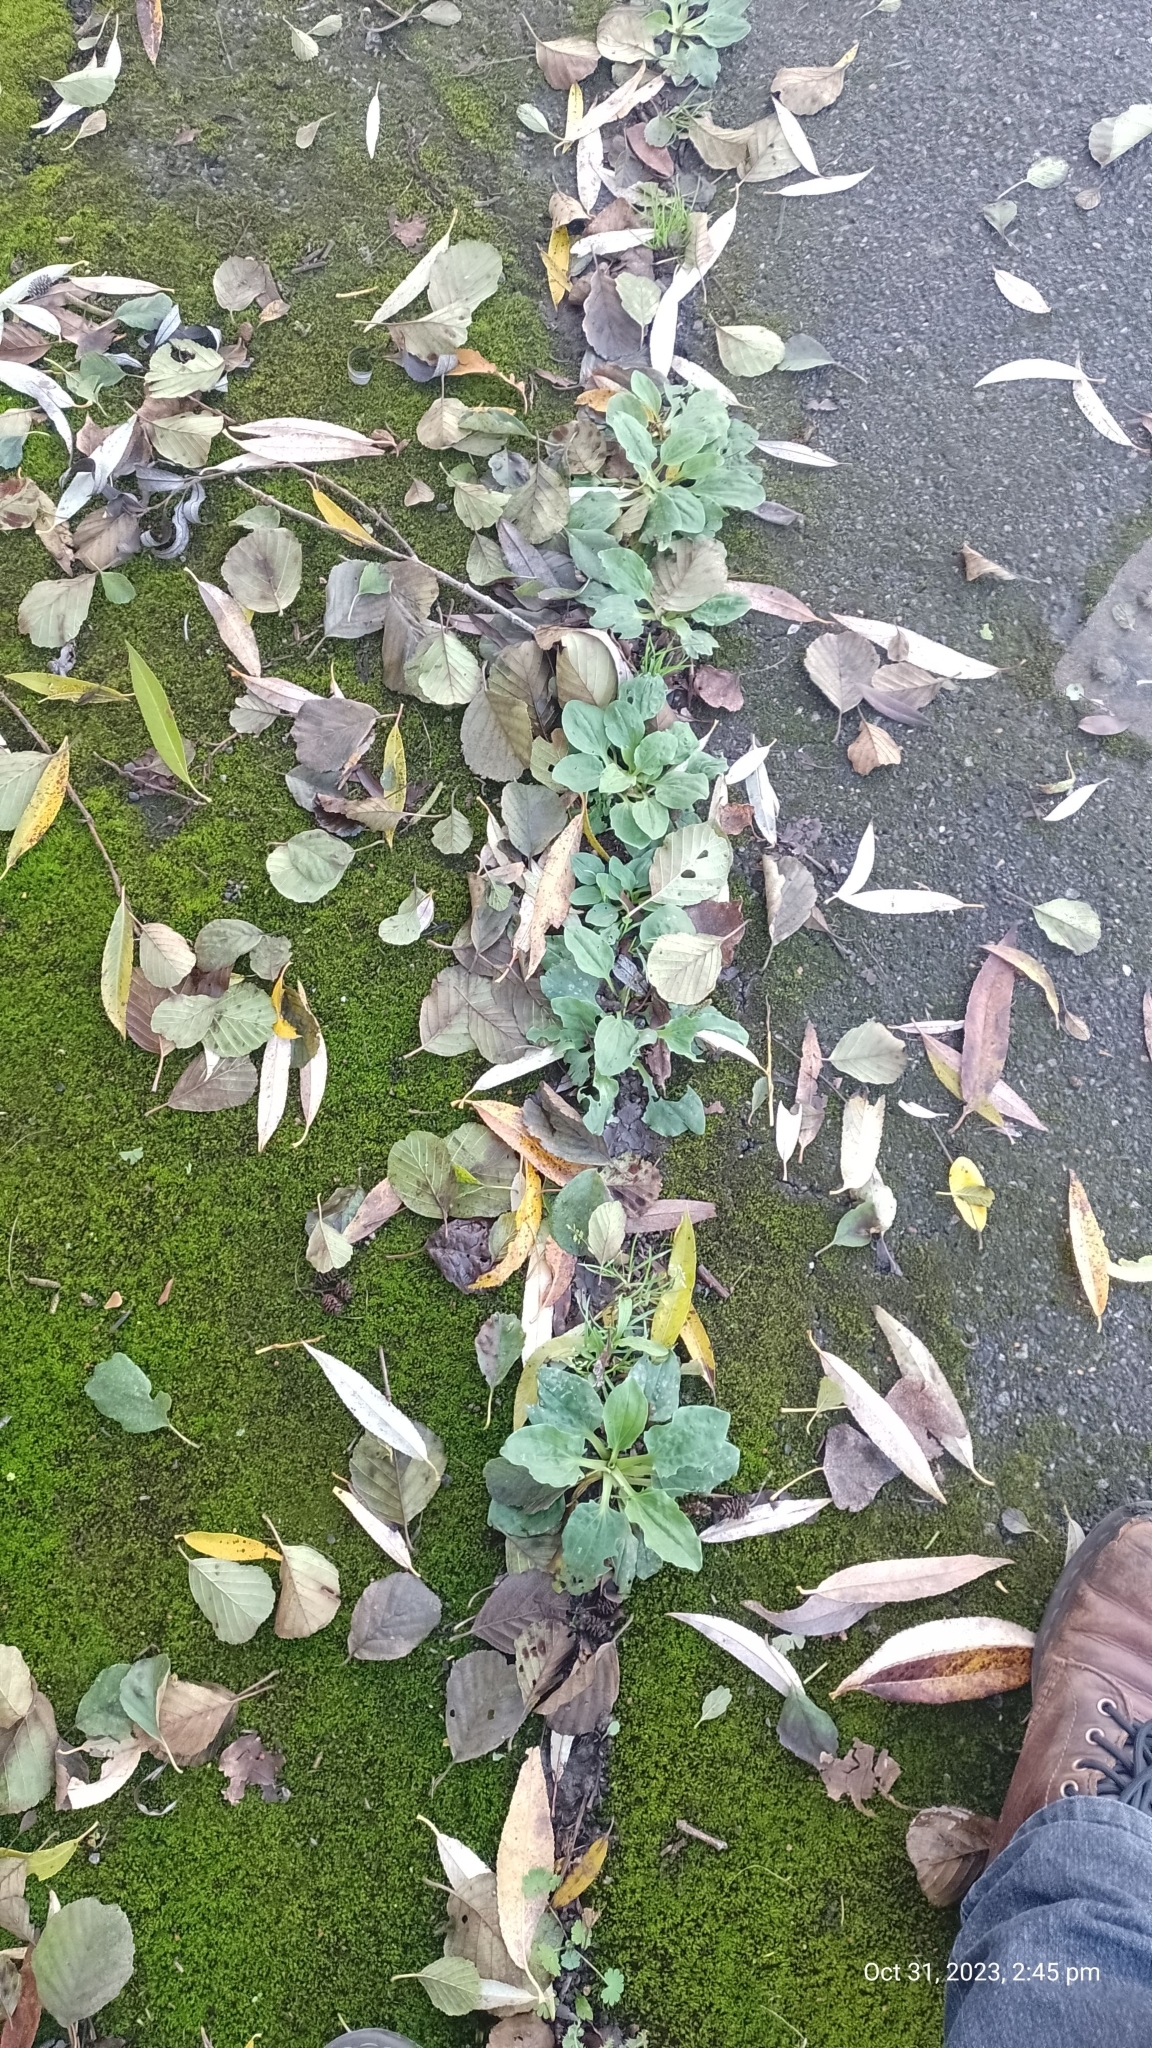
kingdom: Plantae
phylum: Tracheophyta
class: Magnoliopsida
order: Lamiales
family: Plantaginaceae
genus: Plantago
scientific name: Plantago major
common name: Common plantain
